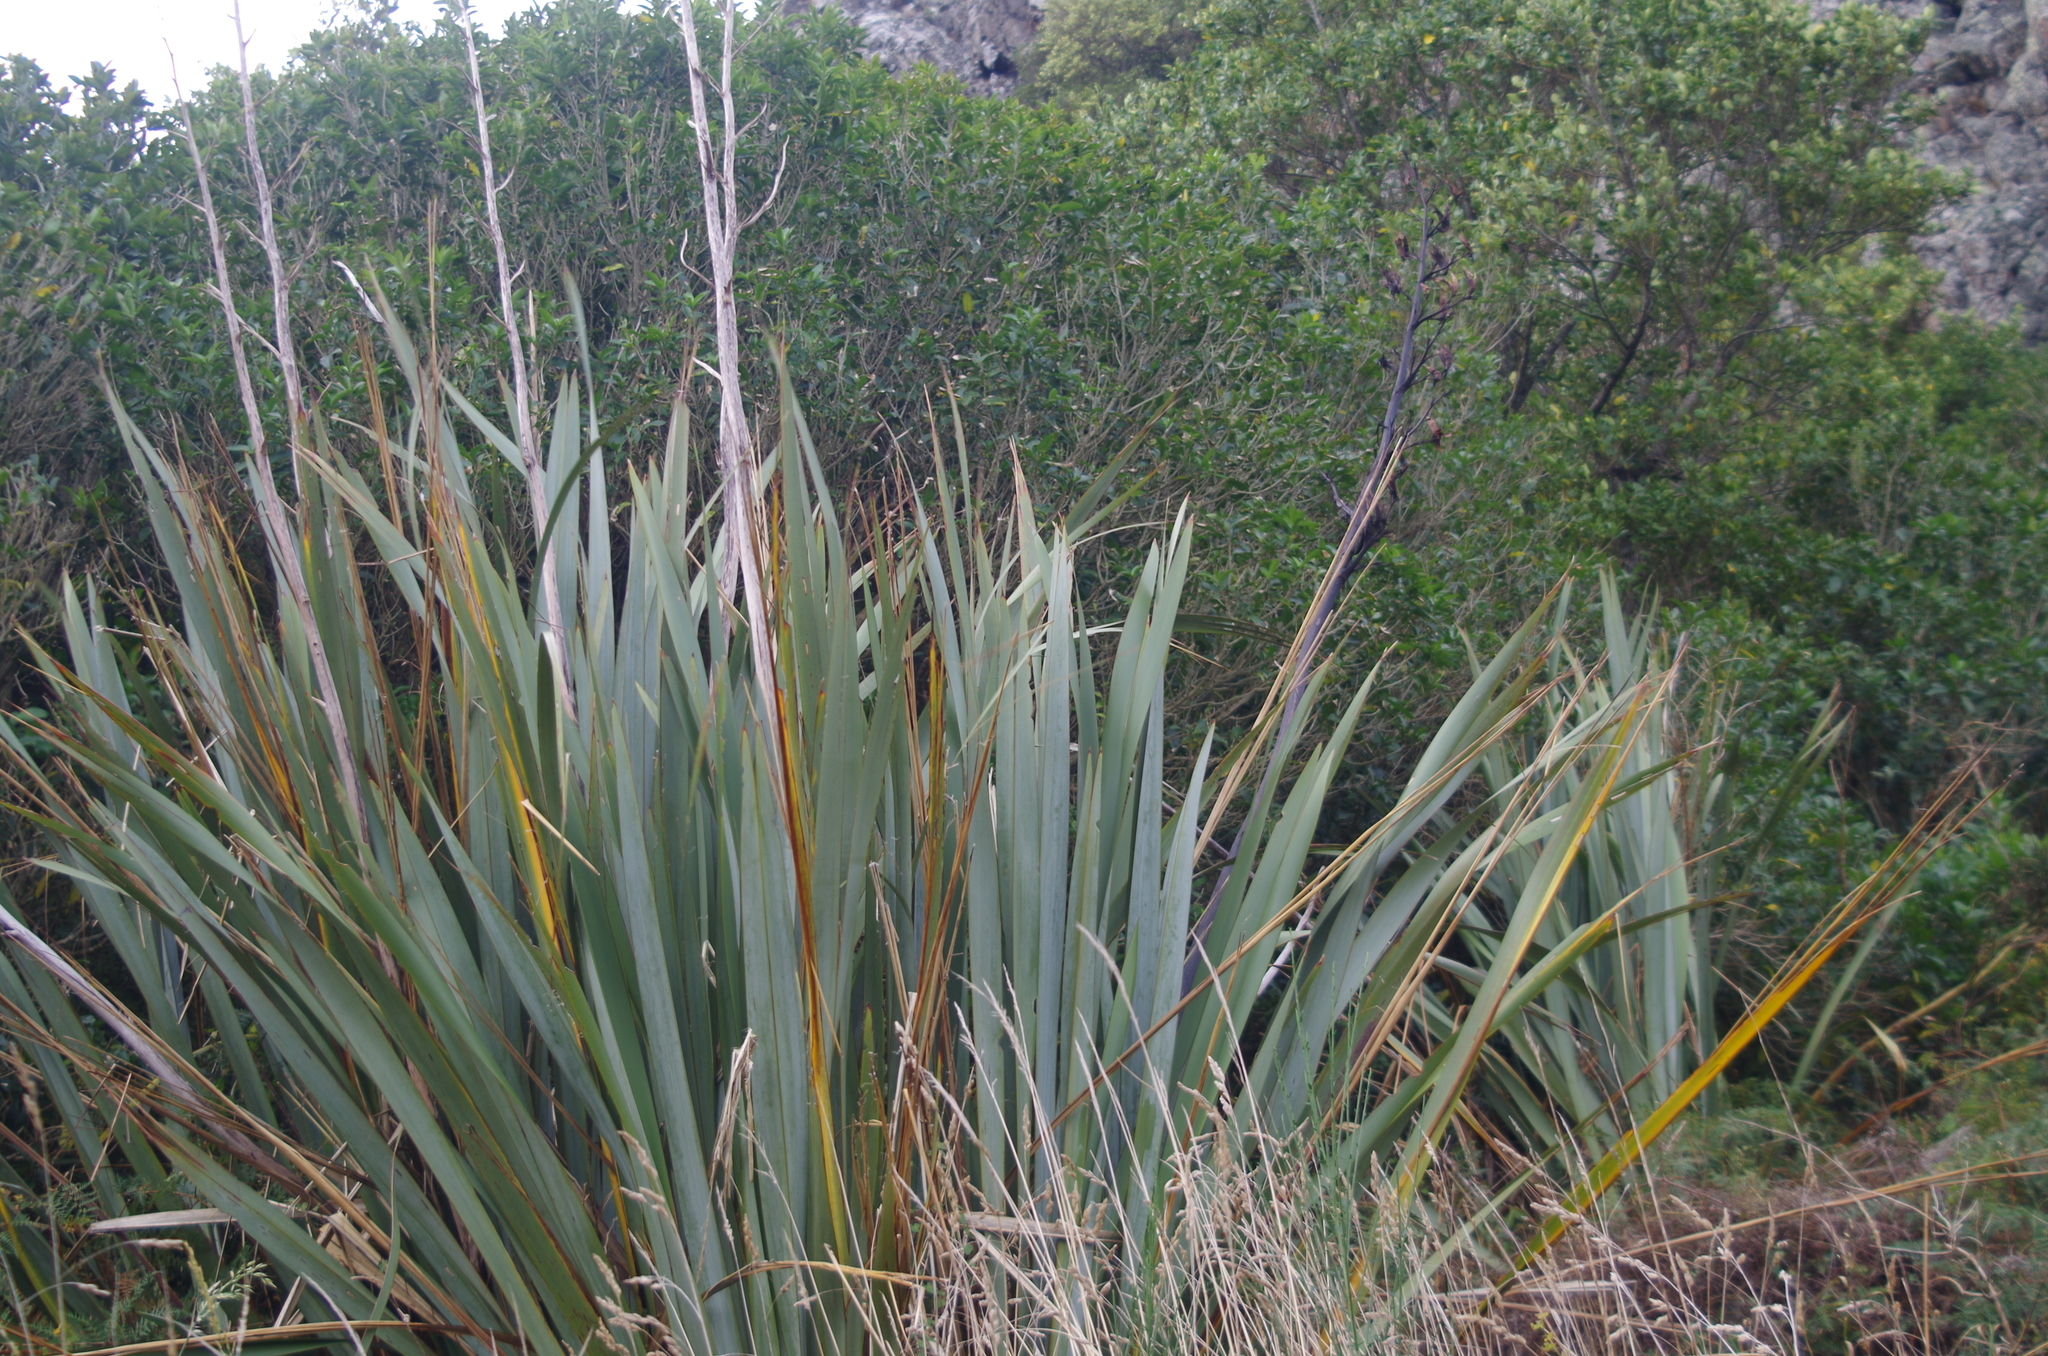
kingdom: Plantae
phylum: Tracheophyta
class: Liliopsida
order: Asparagales
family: Asphodelaceae
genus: Phormium
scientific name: Phormium tenax
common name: New zealand flax
